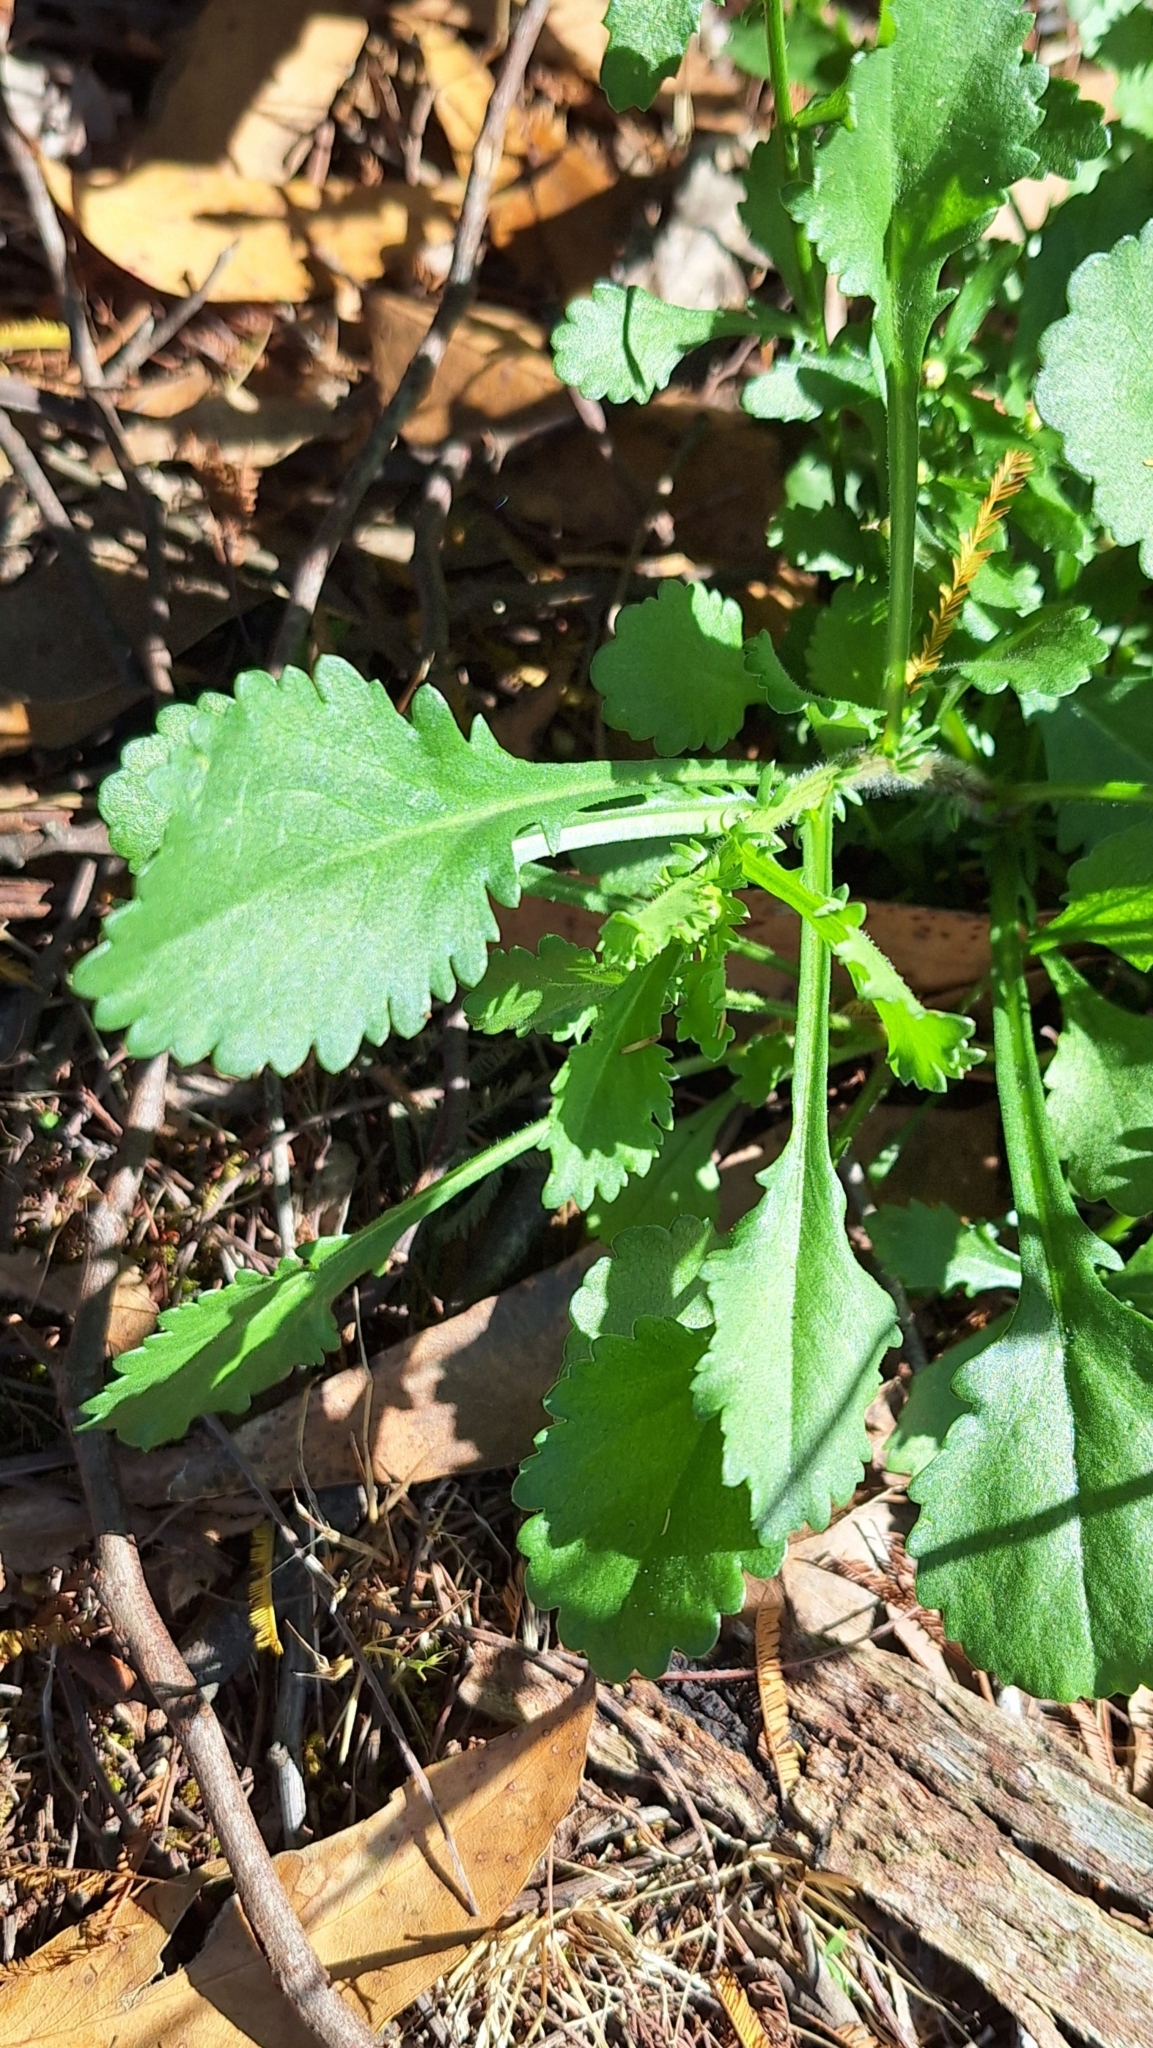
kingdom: Plantae
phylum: Tracheophyta
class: Magnoliopsida
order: Asterales
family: Asteraceae
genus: Leucanthemum
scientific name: Leucanthemum vulgare
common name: Oxeye daisy
